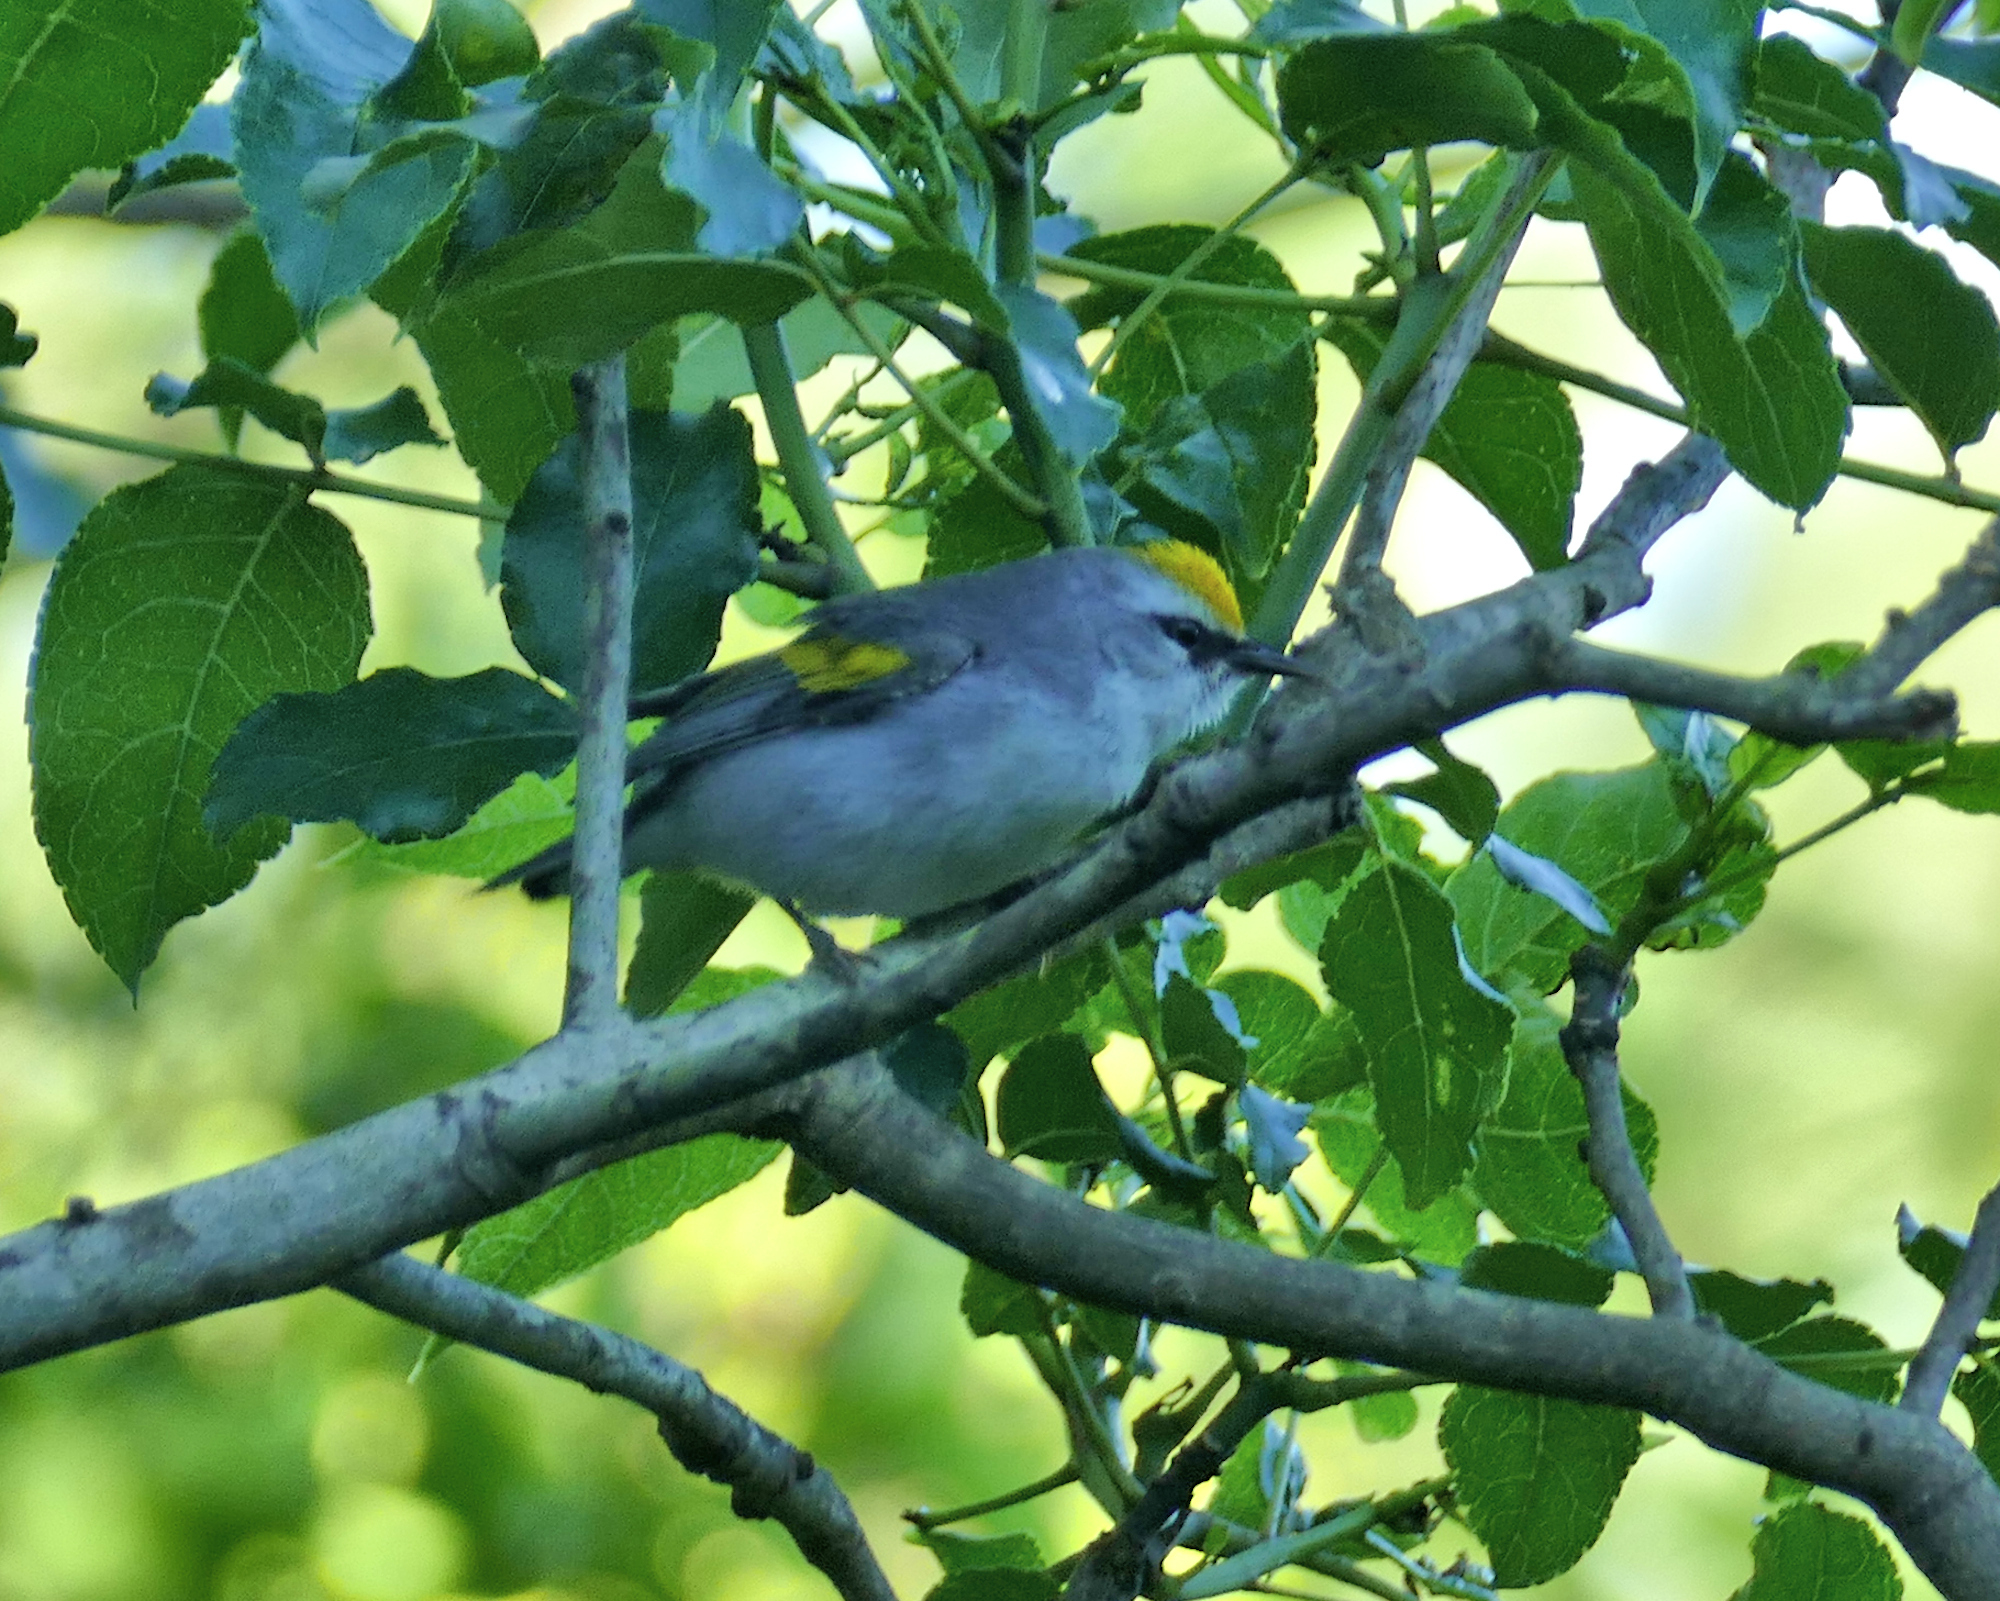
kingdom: Animalia
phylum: Chordata
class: Aves
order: Passeriformes
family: Parulidae
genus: Vermivora
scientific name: Vermivora
